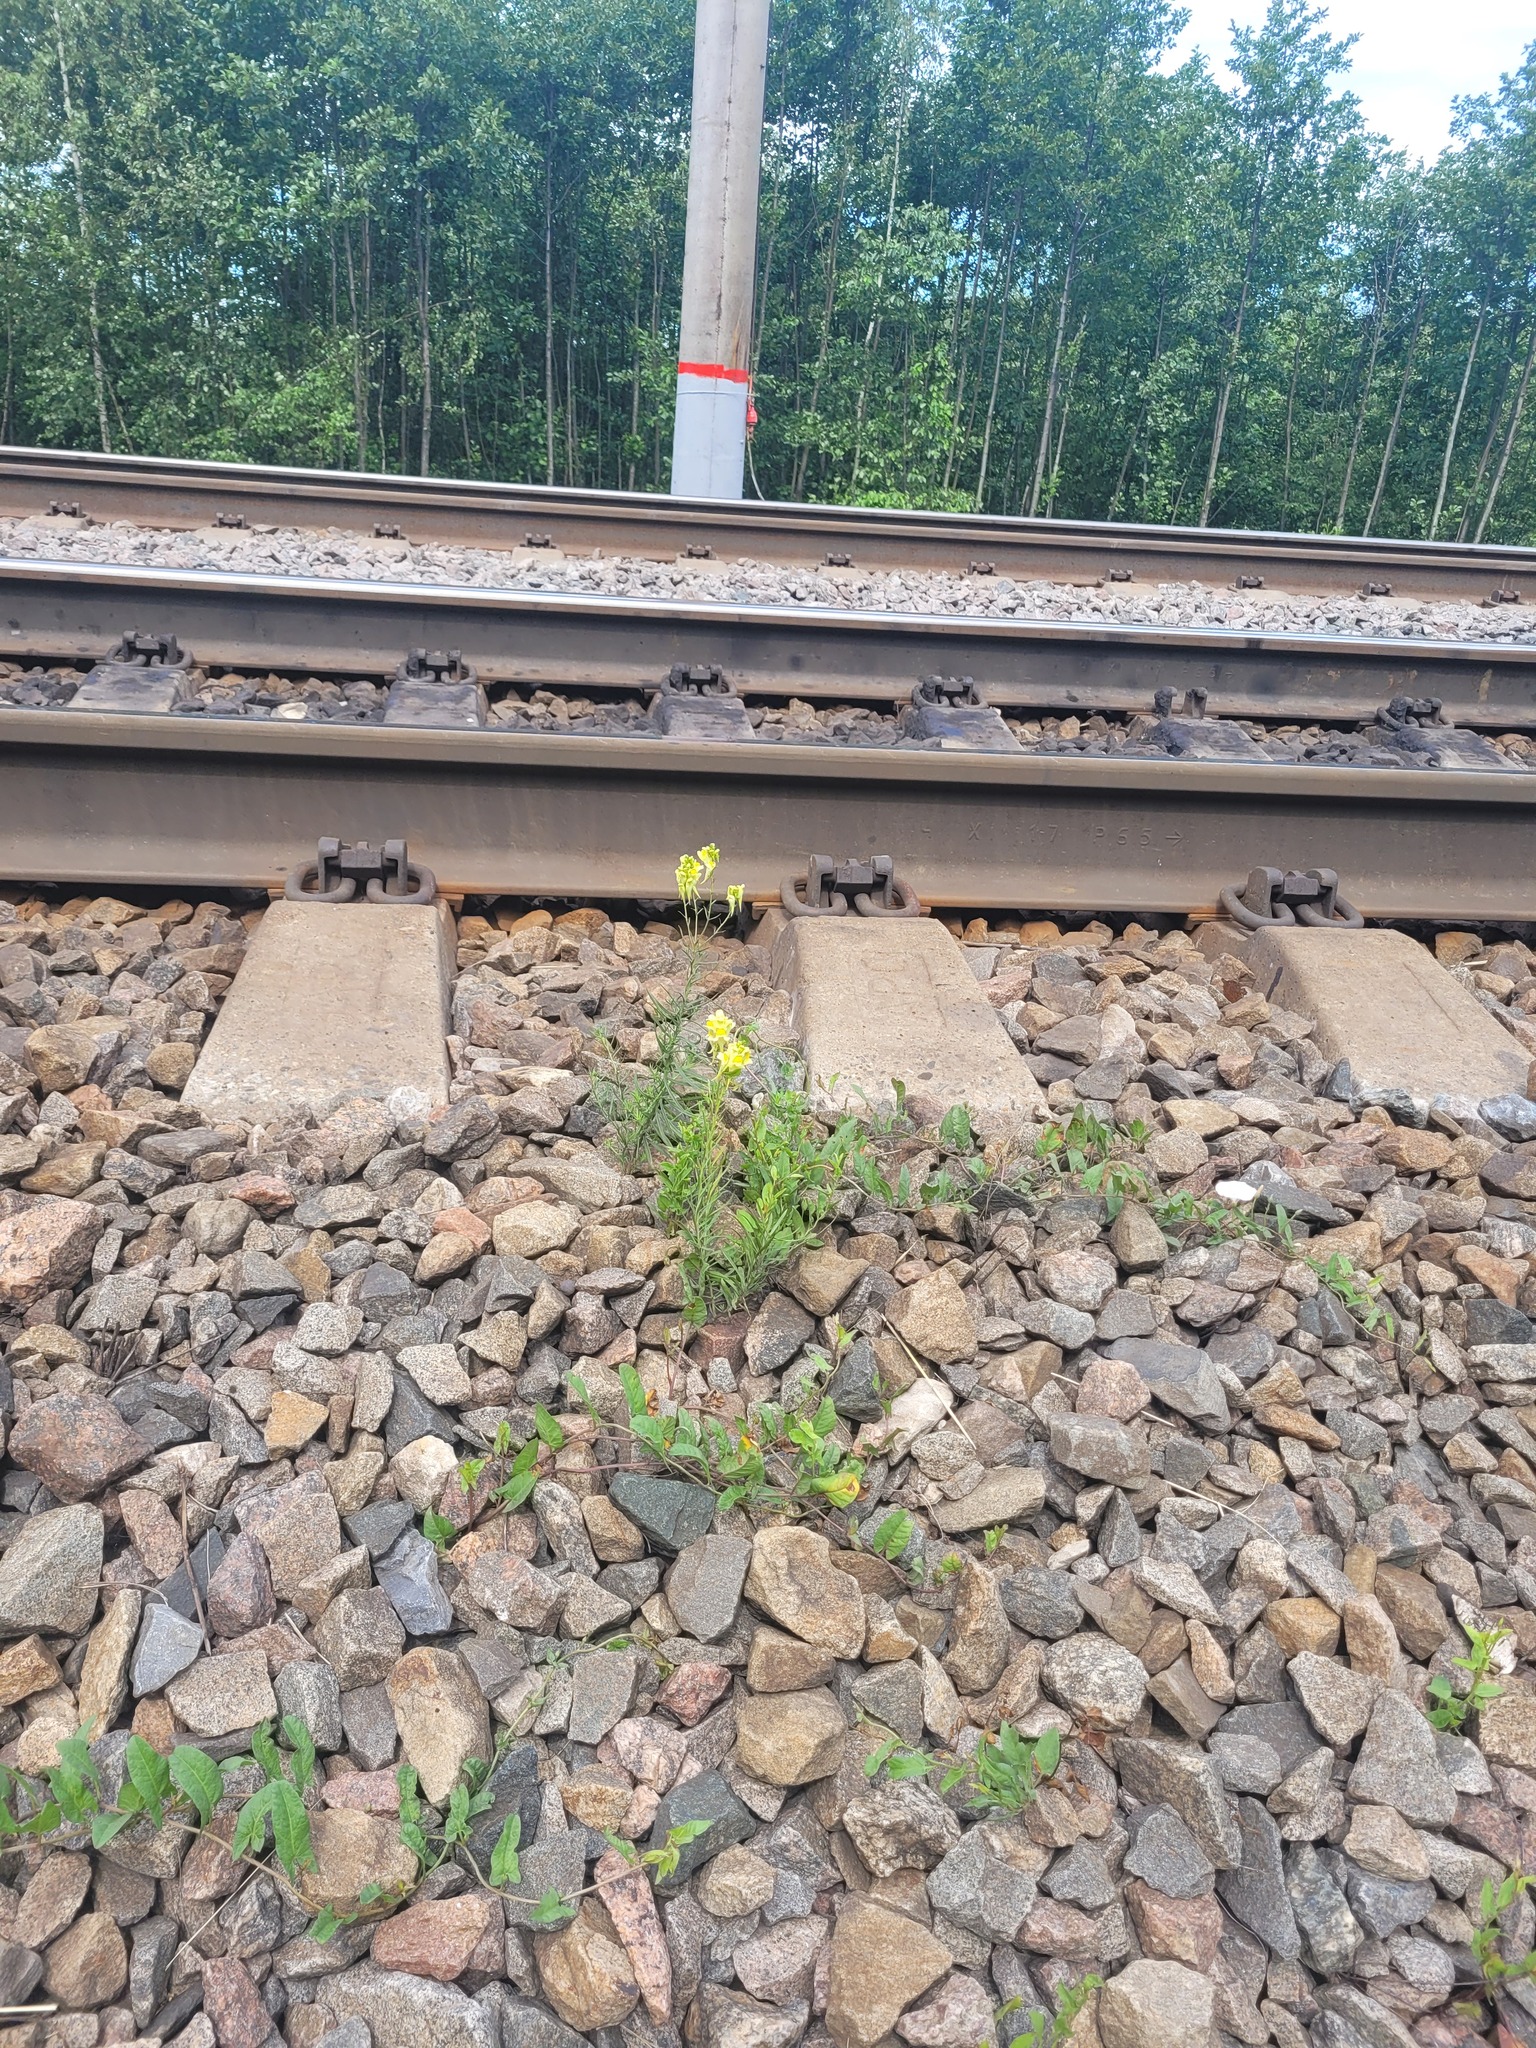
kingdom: Plantae
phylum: Tracheophyta
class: Magnoliopsida
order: Lamiales
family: Plantaginaceae
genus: Linaria
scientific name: Linaria vulgaris
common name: Butter and eggs
